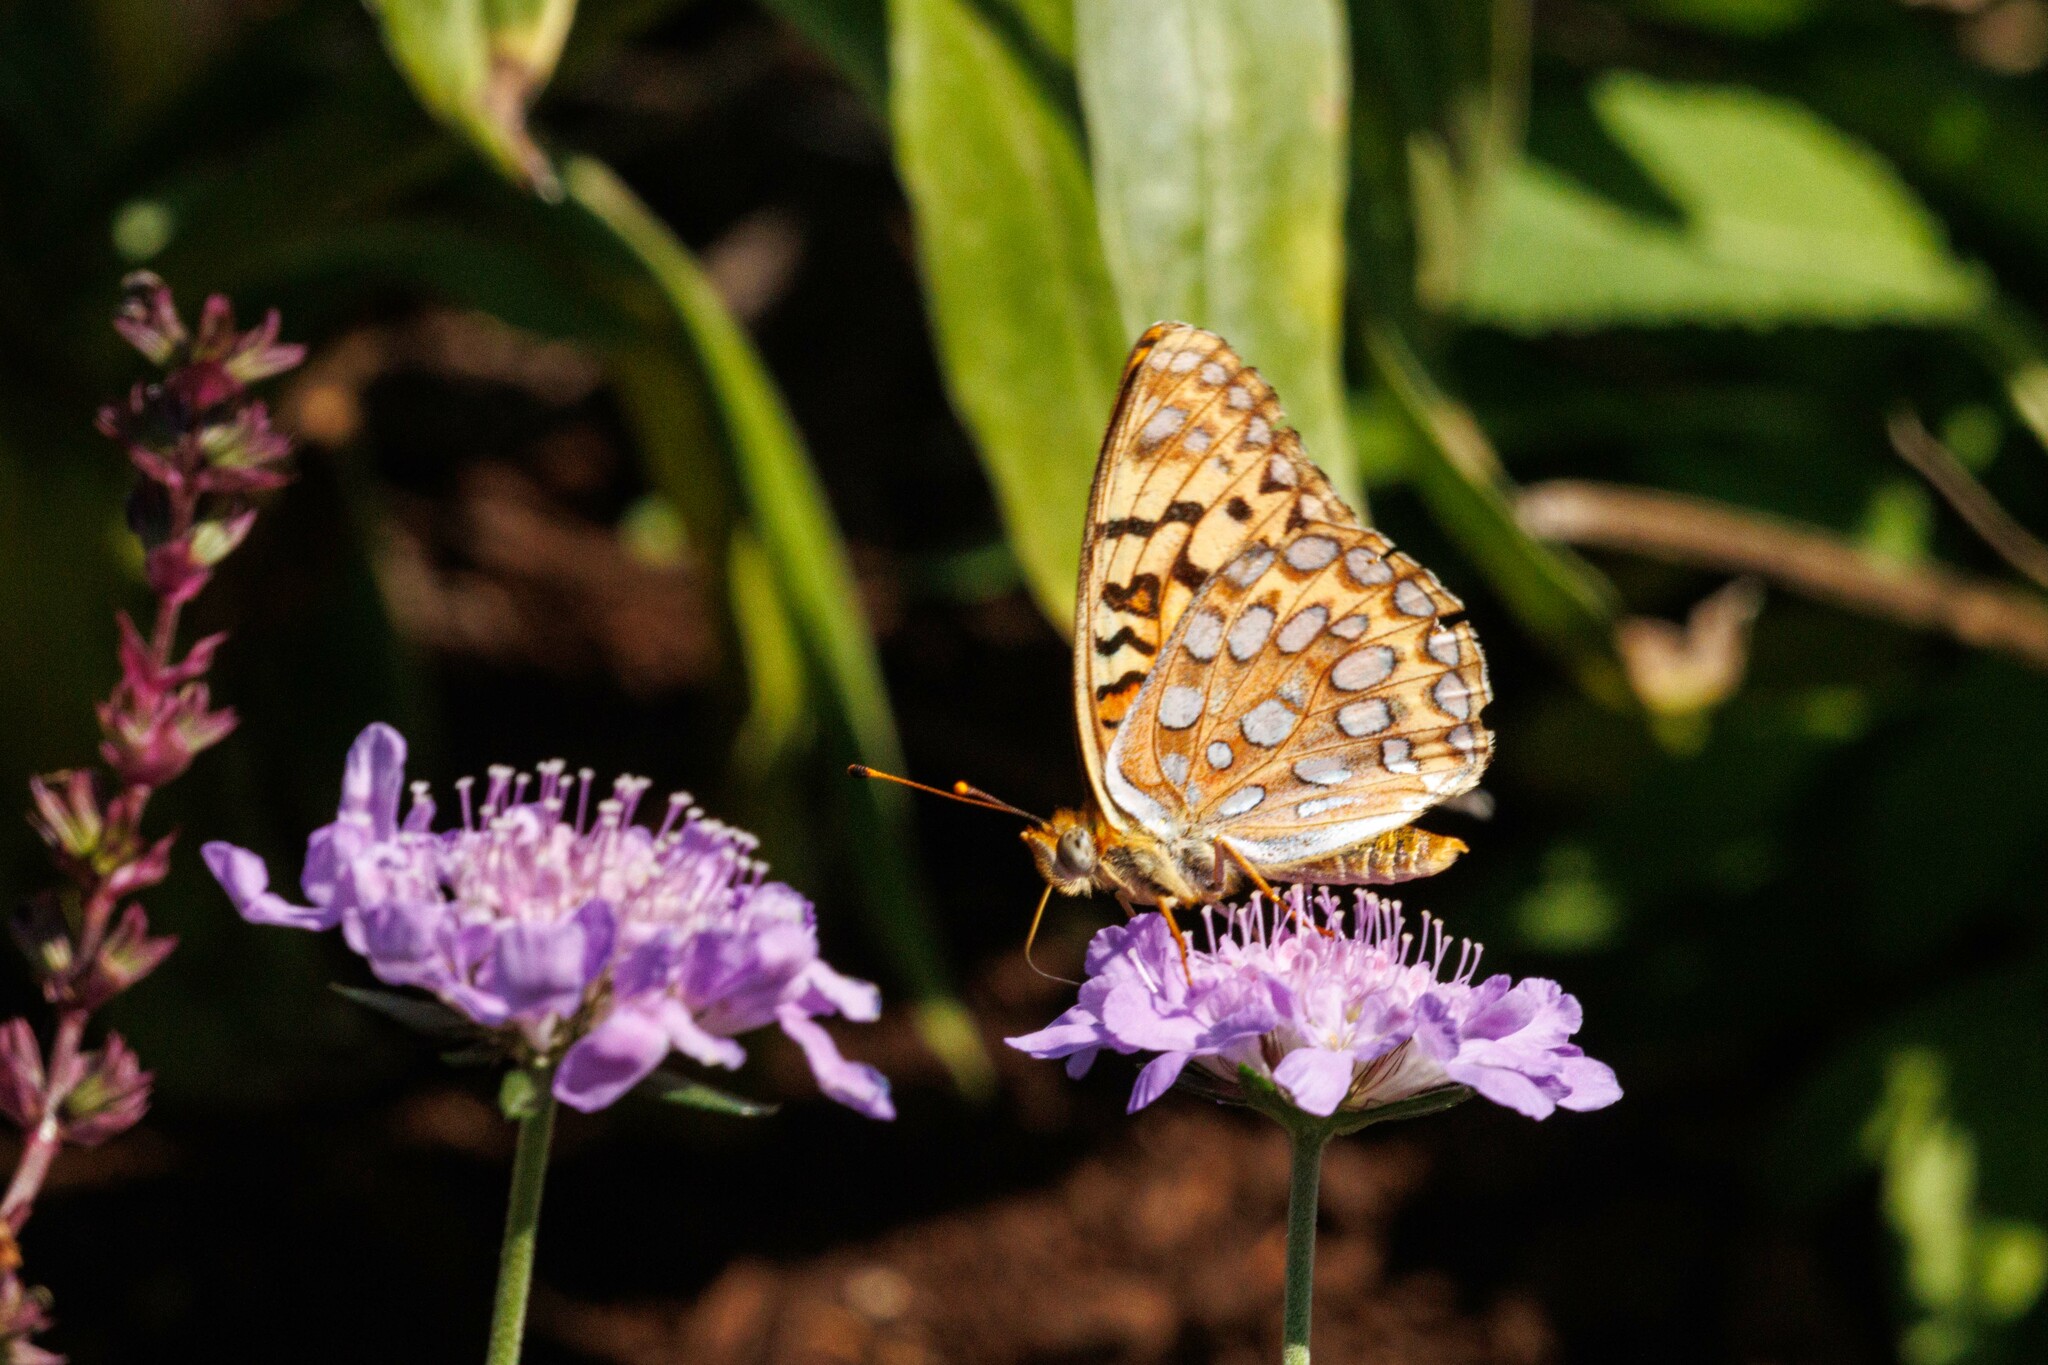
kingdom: Animalia
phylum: Arthropoda
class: Insecta
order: Lepidoptera
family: Nymphalidae
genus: Argynnis
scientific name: Argynnis coronis
